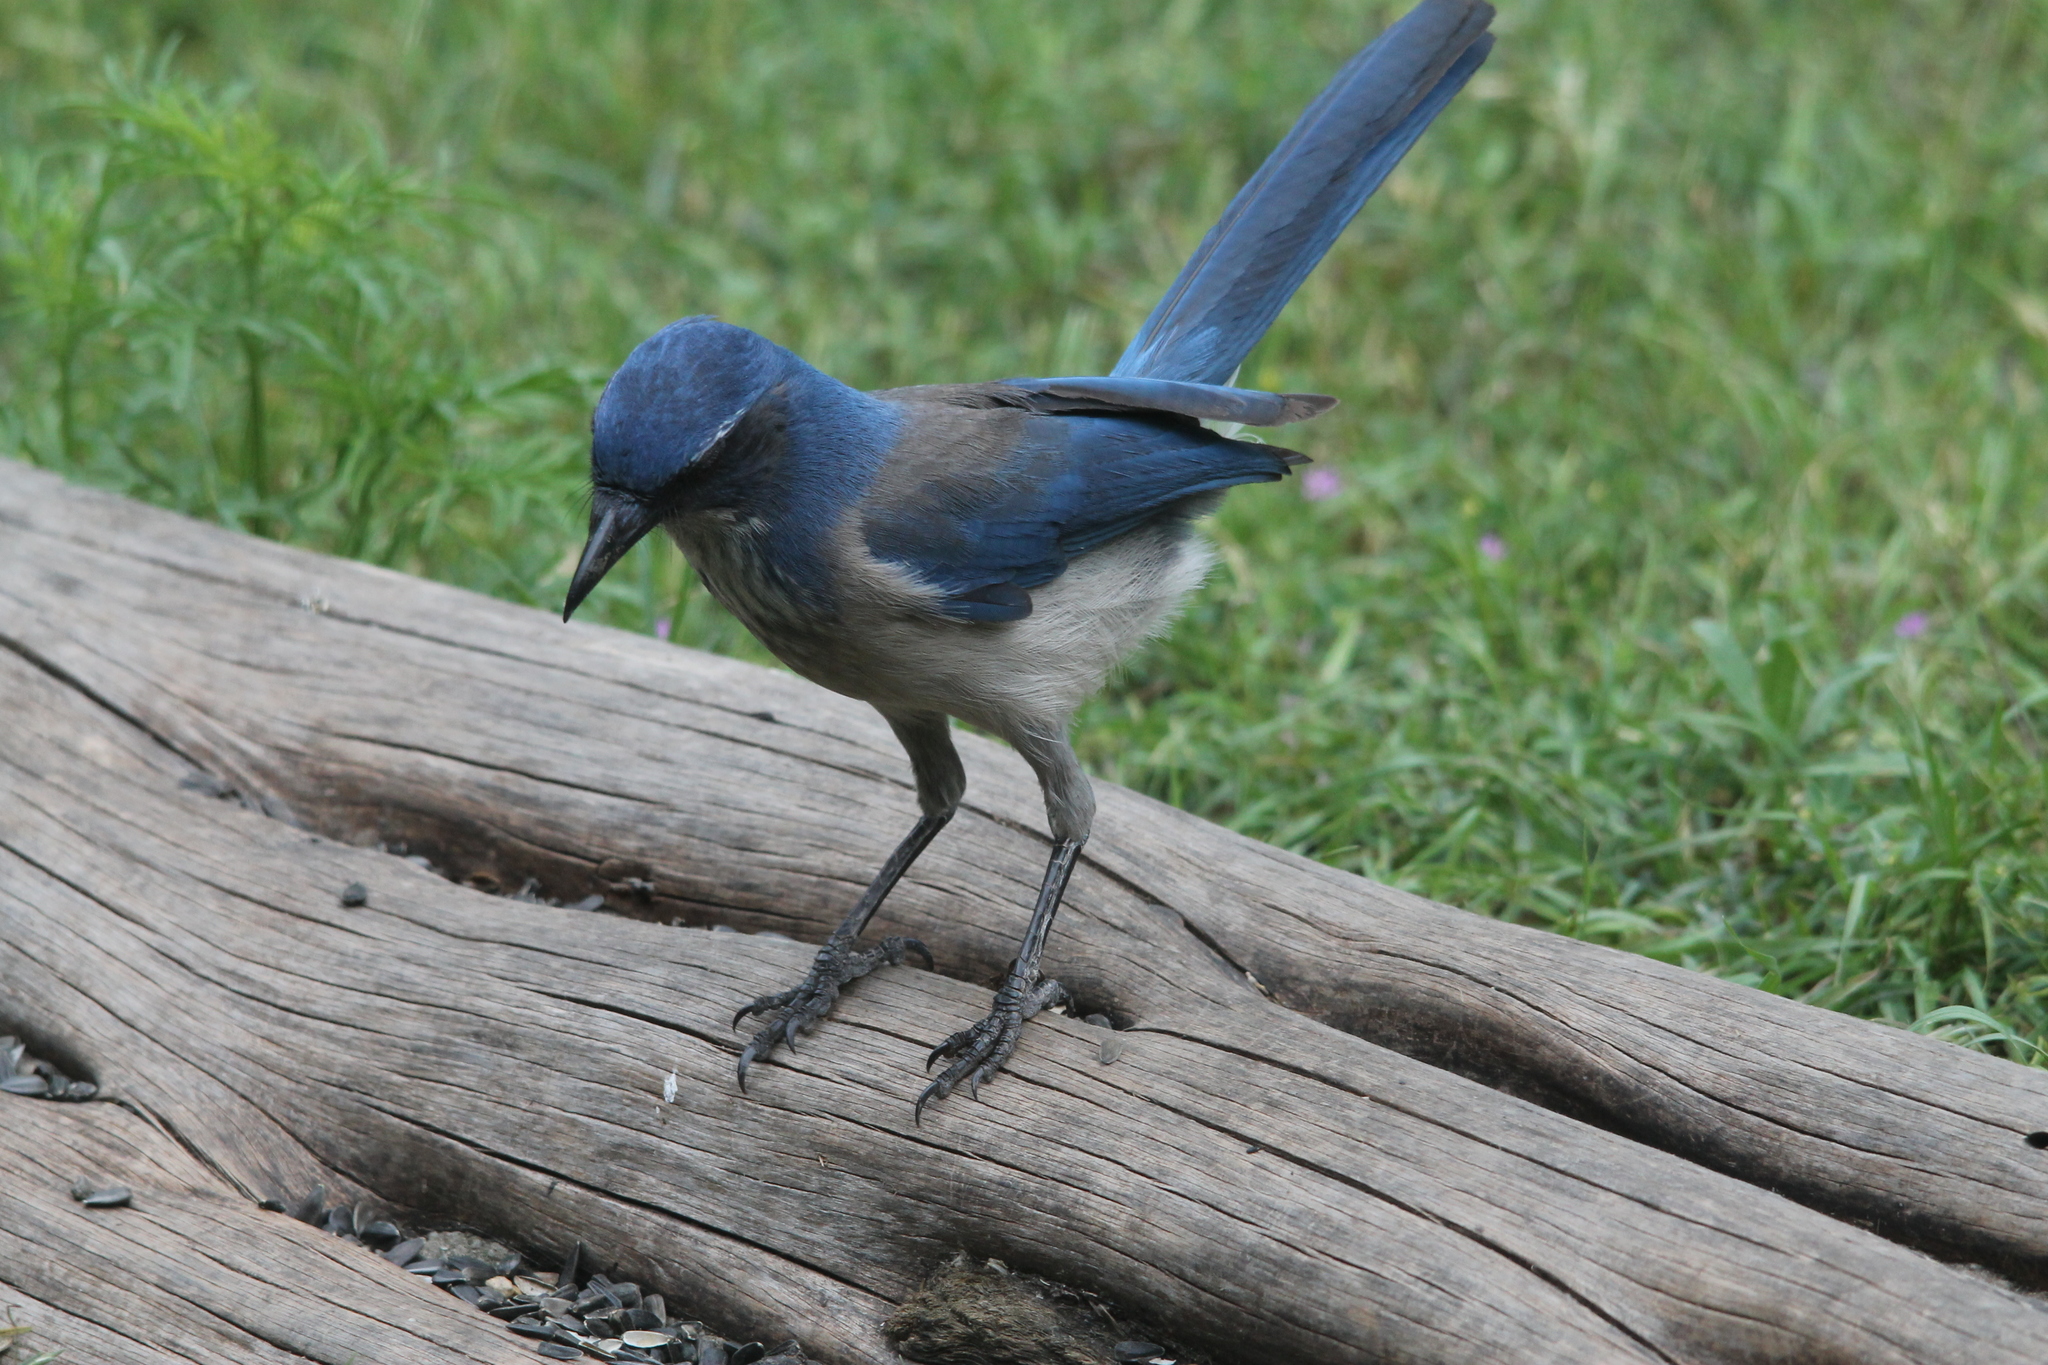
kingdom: Animalia
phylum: Chordata
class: Aves
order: Passeriformes
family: Corvidae
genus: Aphelocoma
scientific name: Aphelocoma woodhouseii
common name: Woodhouse's scrub-jay
